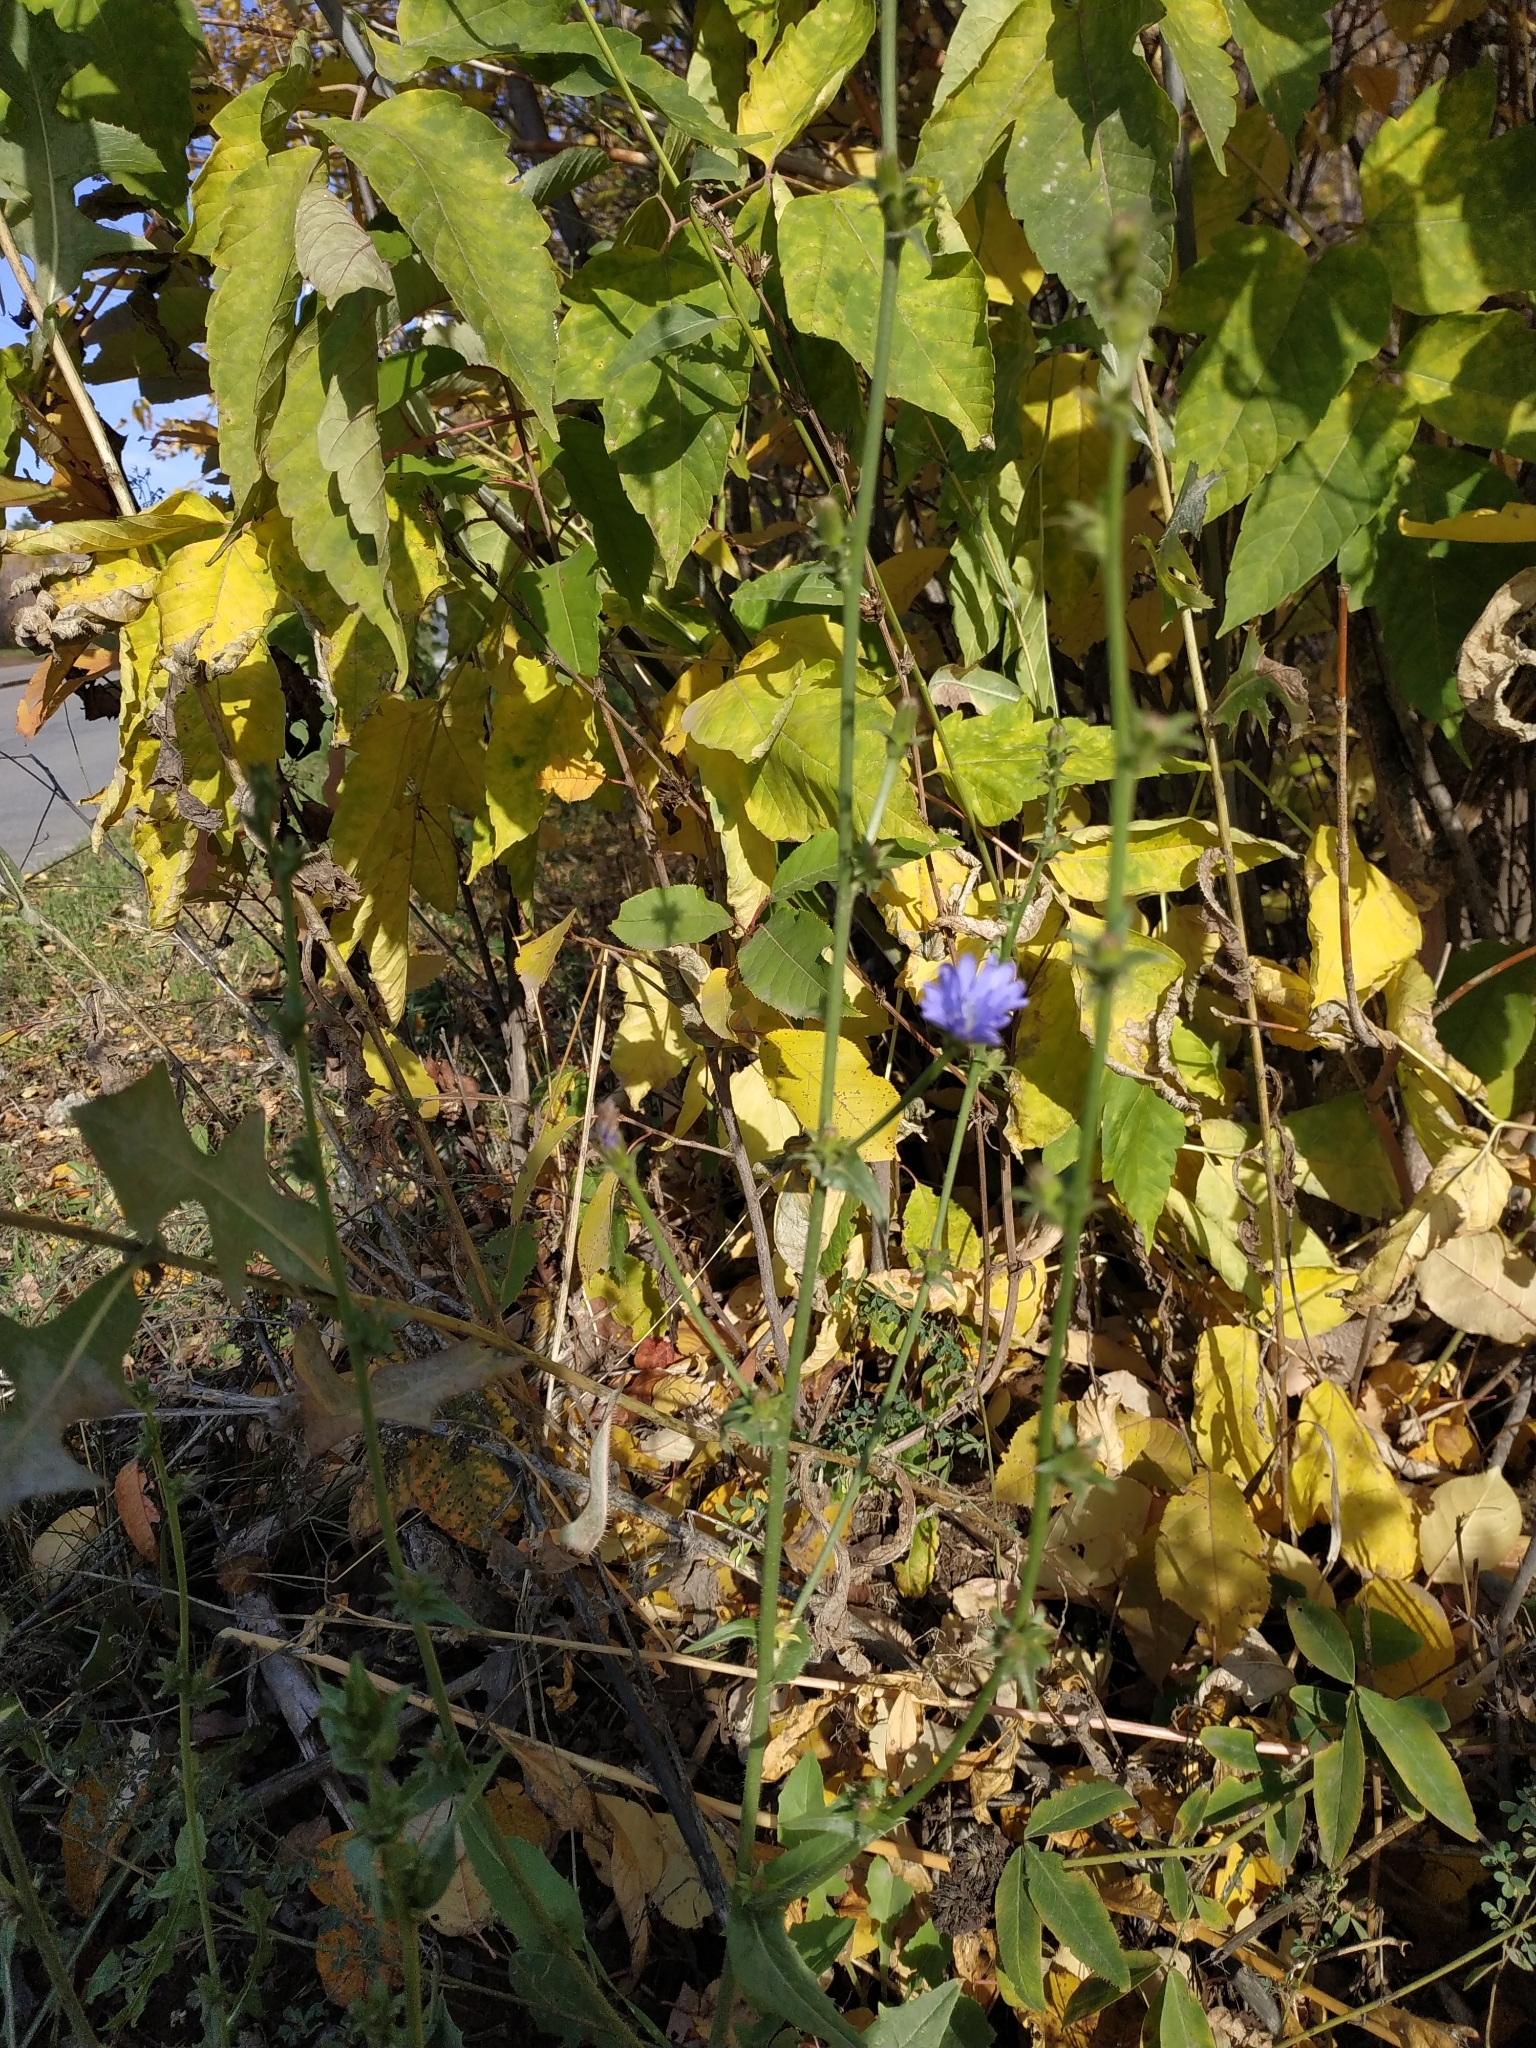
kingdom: Plantae
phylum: Tracheophyta
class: Magnoliopsida
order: Asterales
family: Asteraceae
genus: Cichorium
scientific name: Cichorium intybus
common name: Chicory
